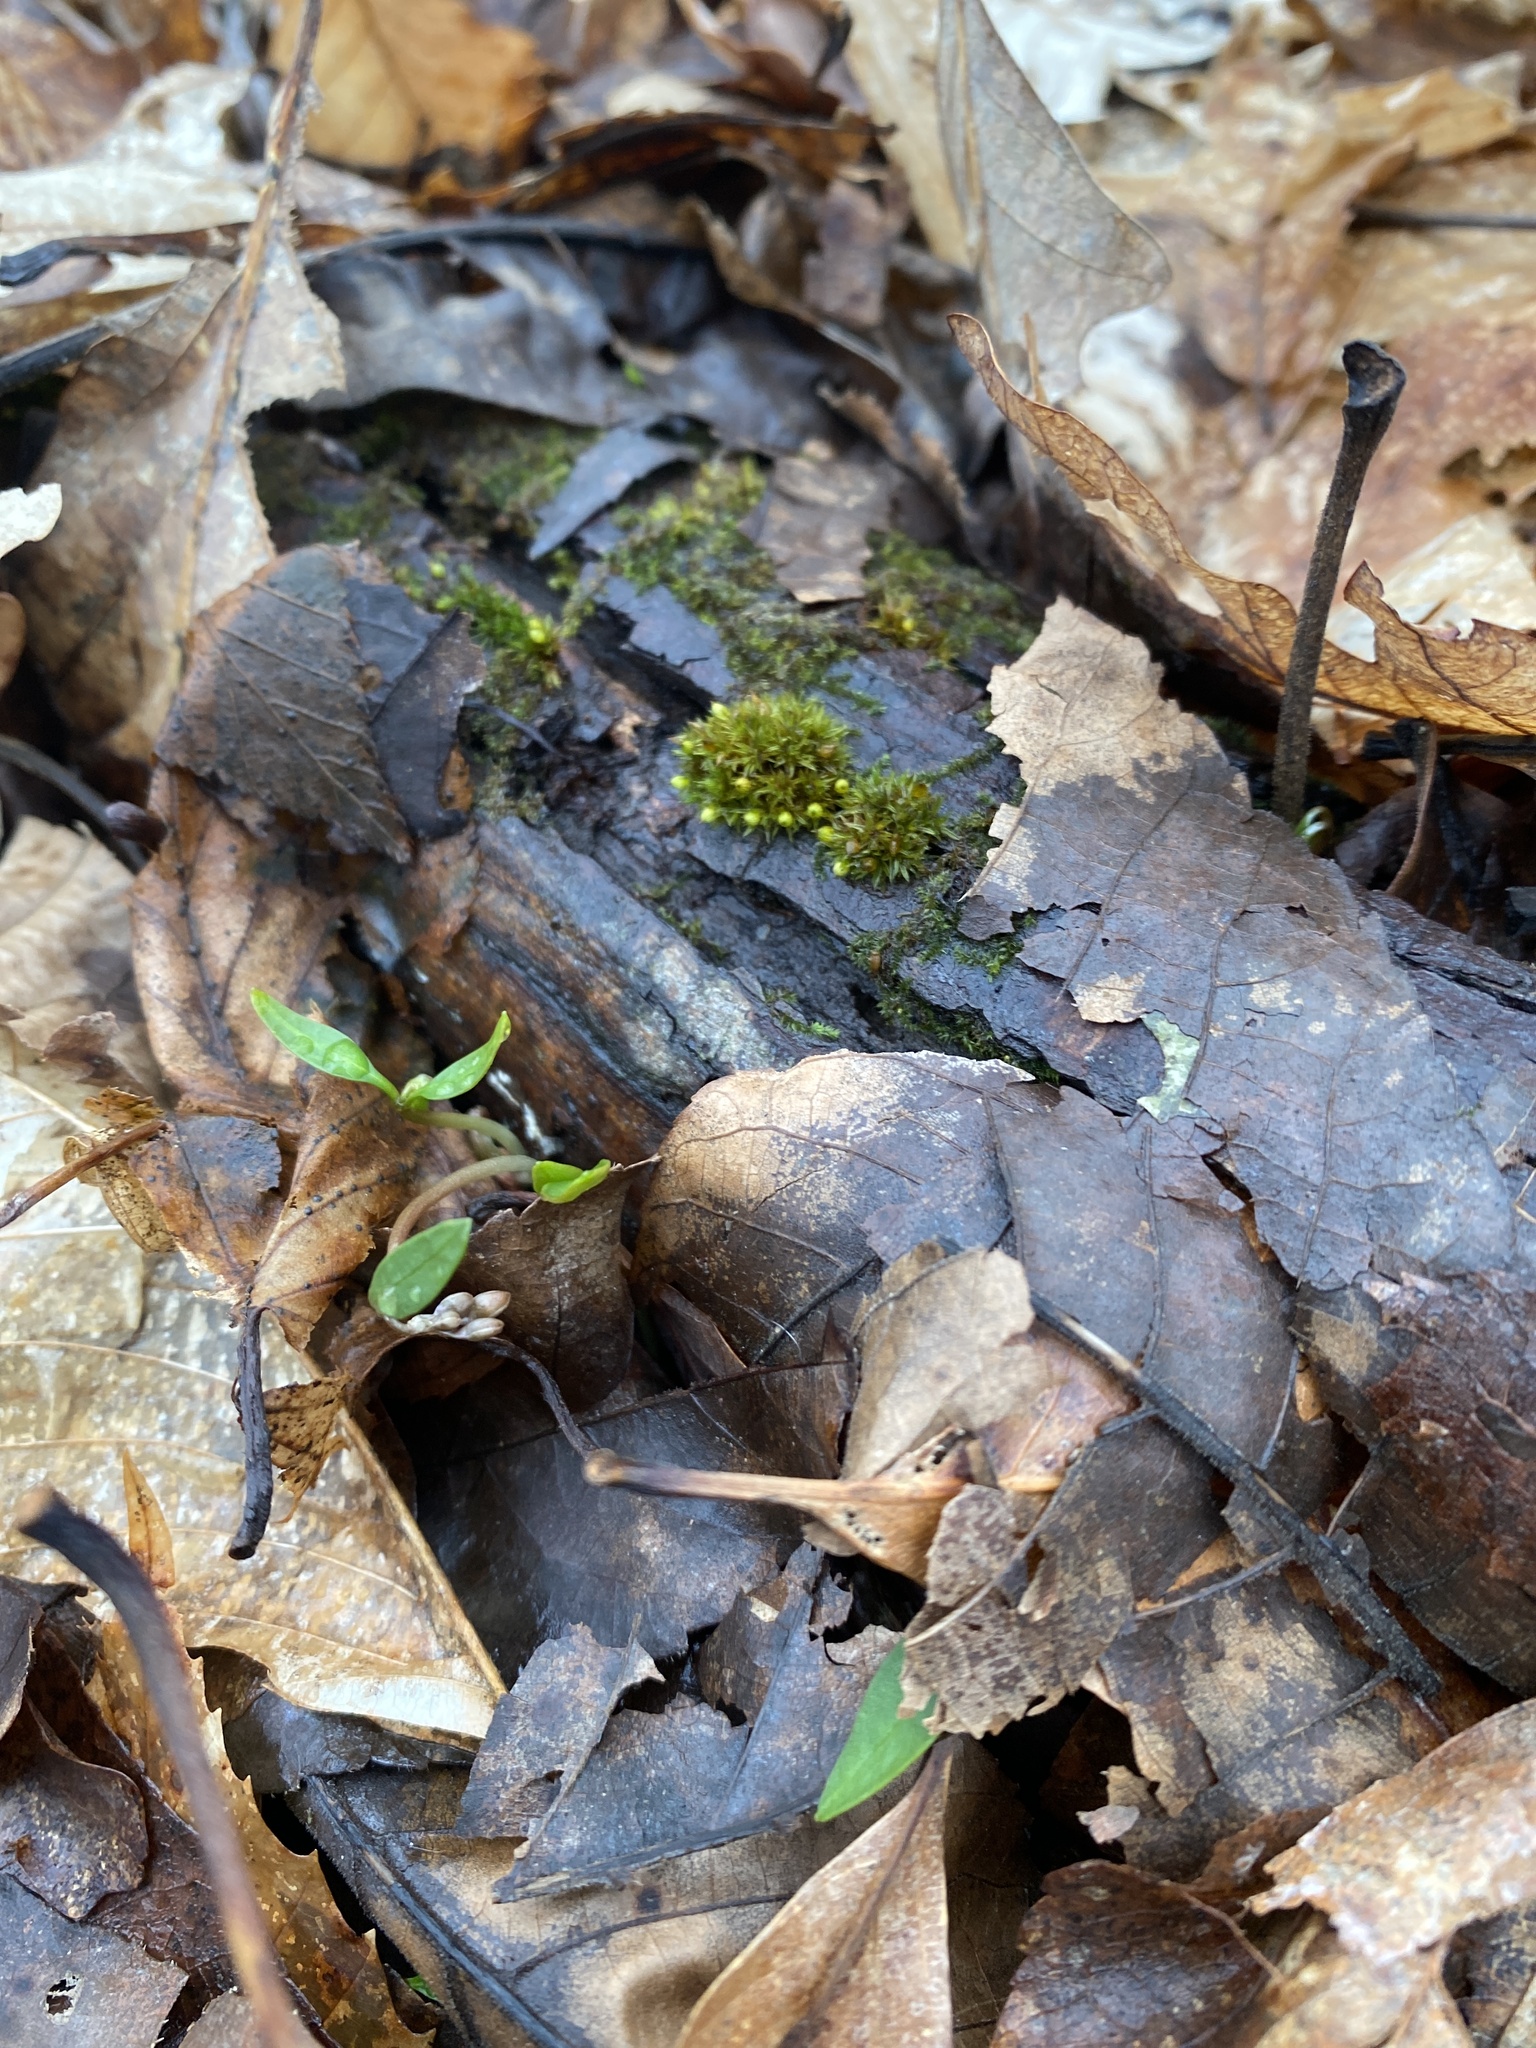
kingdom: Plantae
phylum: Tracheophyta
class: Magnoliopsida
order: Caryophyllales
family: Montiaceae
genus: Claytonia
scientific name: Claytonia caroliniana
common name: Carolina spring beauty
